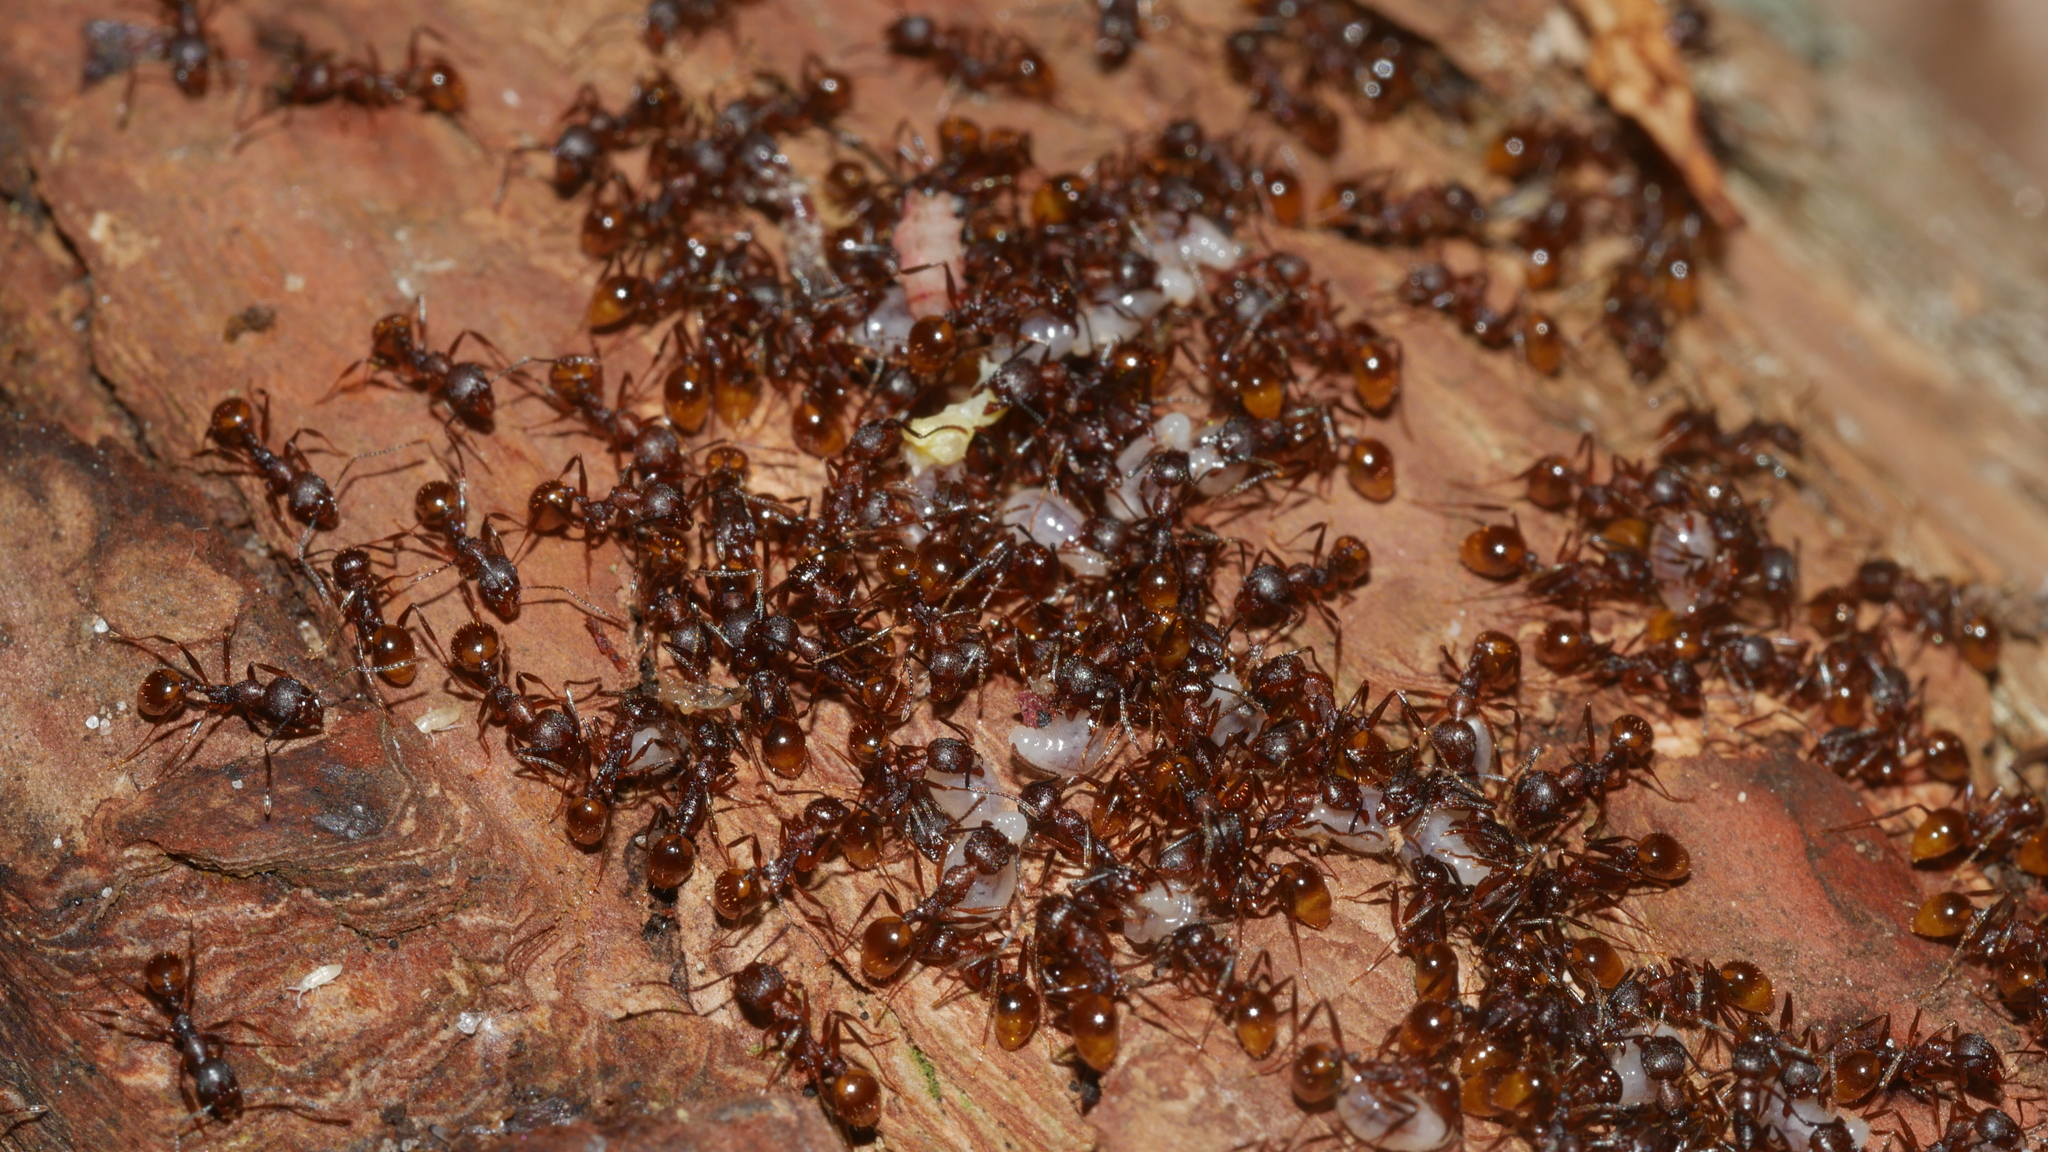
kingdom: Animalia
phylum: Arthropoda
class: Insecta
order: Hymenoptera
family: Formicidae
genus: Aphaenogaster
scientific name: Aphaenogaster fulva
